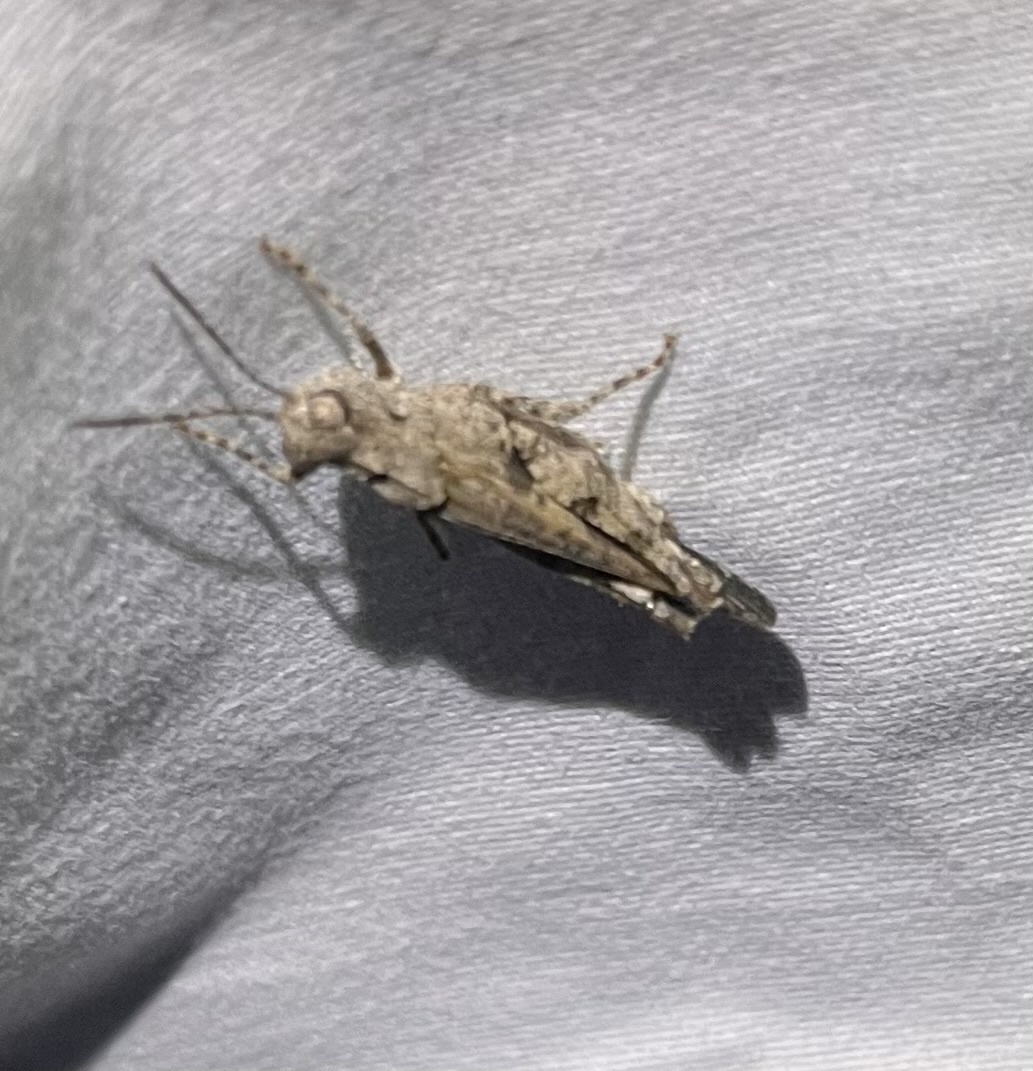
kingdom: Animalia
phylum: Arthropoda
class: Insecta
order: Orthoptera
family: Acrididae
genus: Nebulatettix
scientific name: Nebulatettix subgracilis
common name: Southwestern dusky grasshopper
